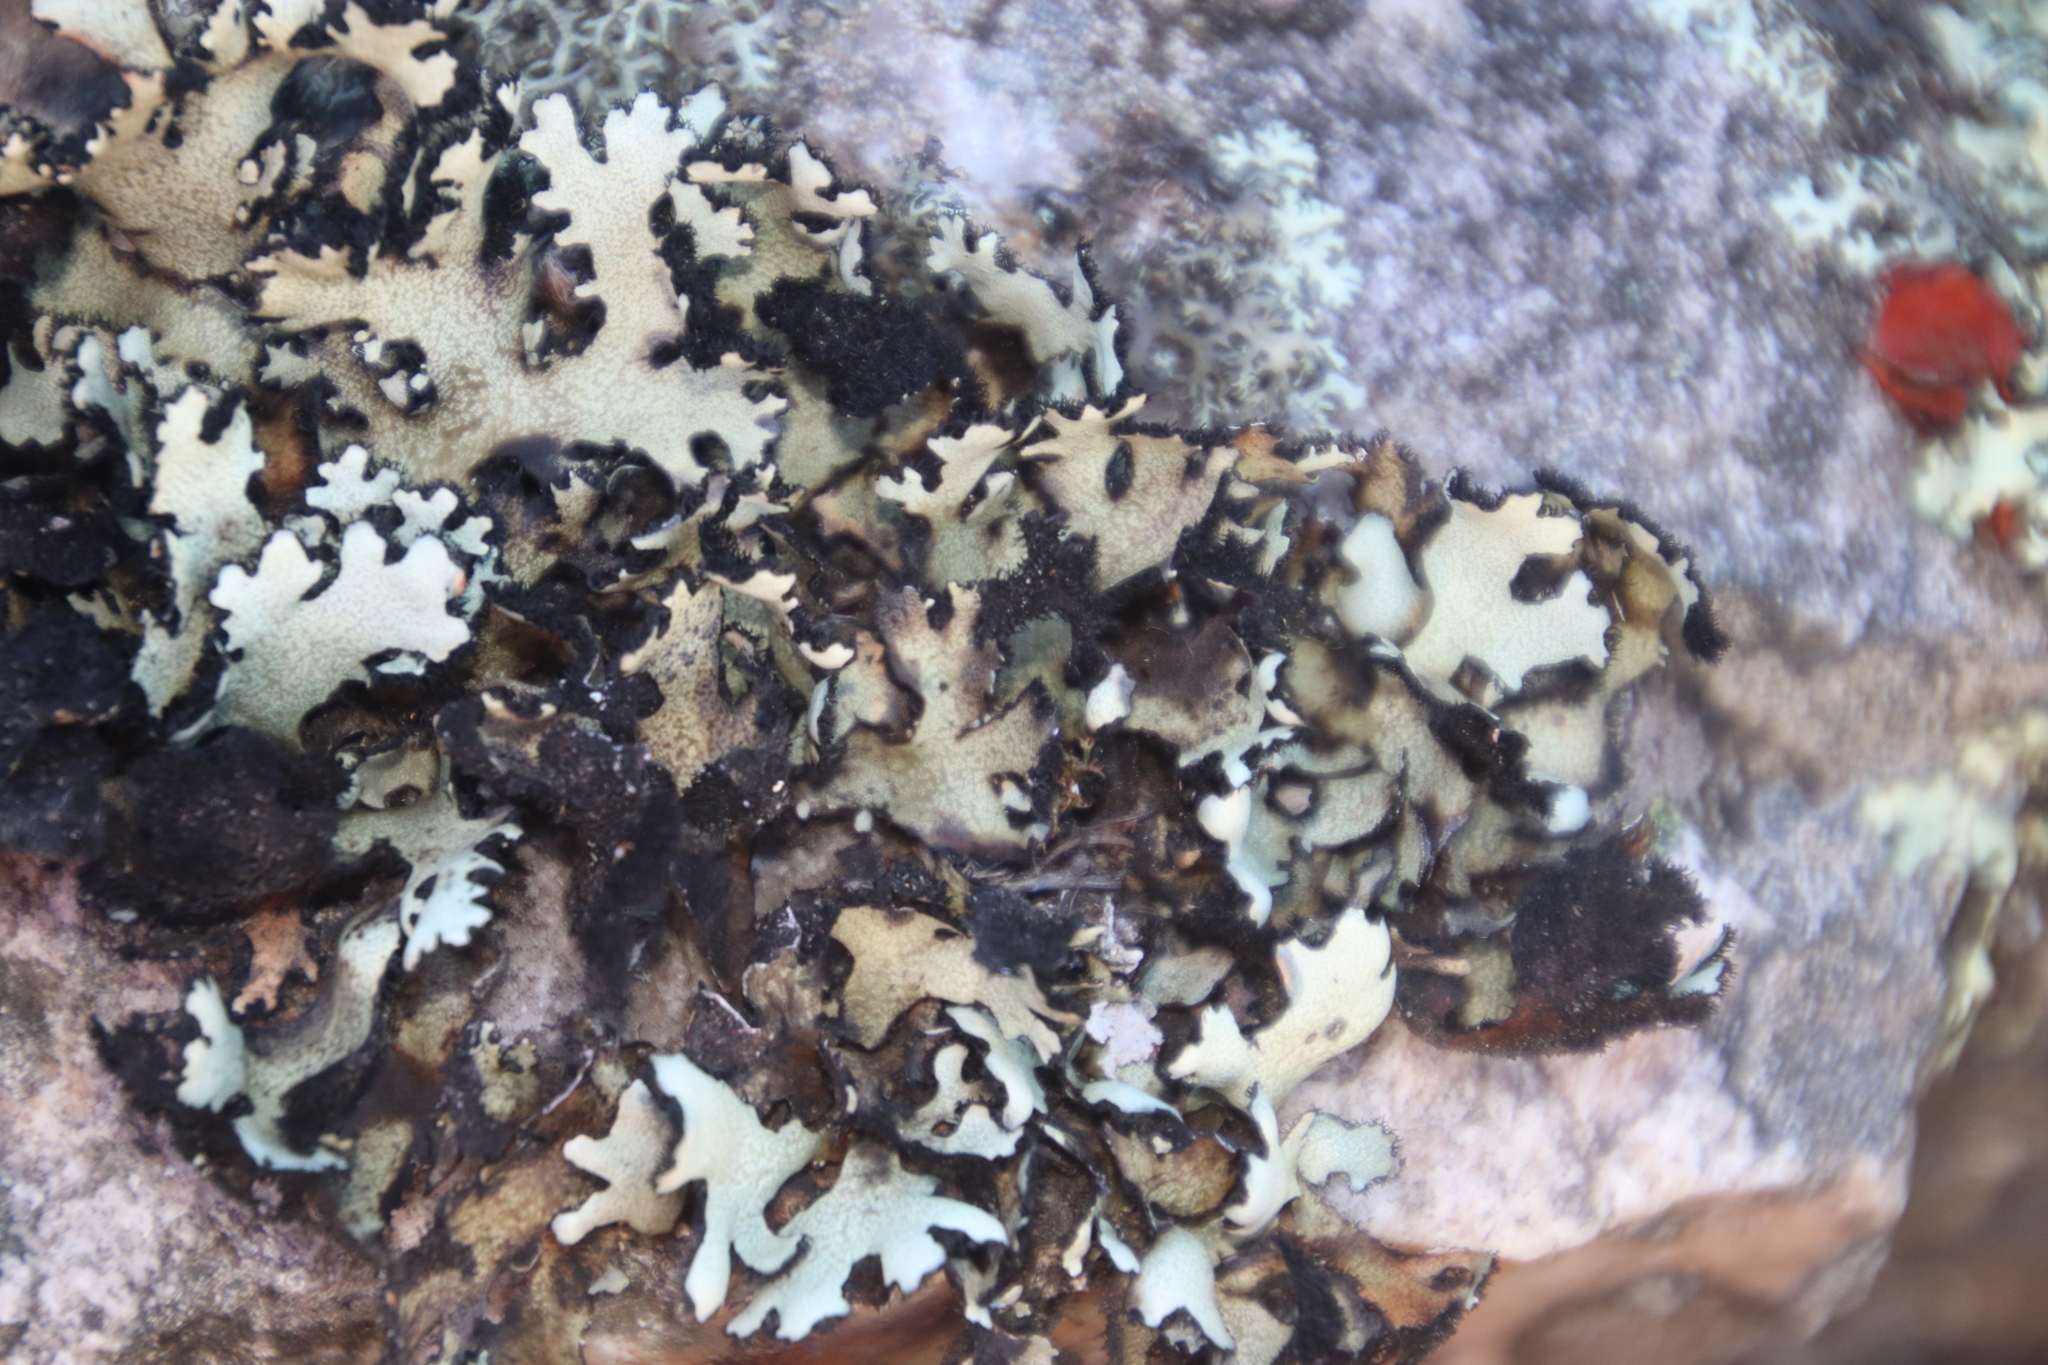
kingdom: Fungi
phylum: Ascomycota
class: Lecanoromycetes
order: Lecanorales
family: Parmeliaceae
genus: Xanthoparmelia
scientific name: Xanthoparmelia hottentotta
